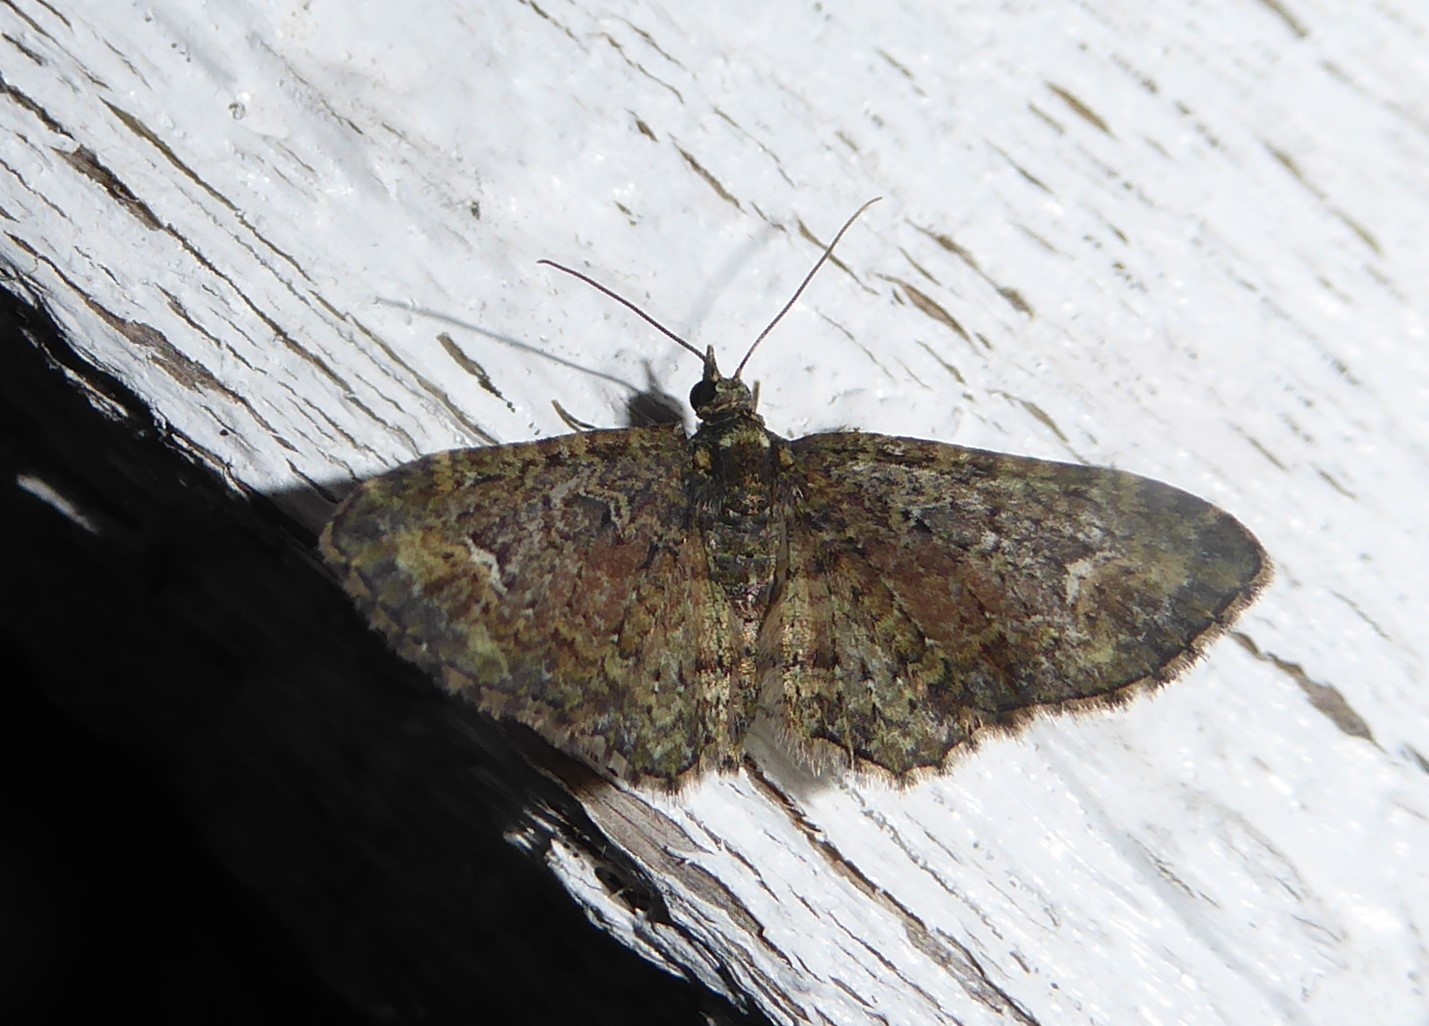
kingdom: Animalia
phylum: Arthropoda
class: Insecta
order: Lepidoptera
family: Geometridae
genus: Pasiphilodes
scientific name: Pasiphilodes testulata
